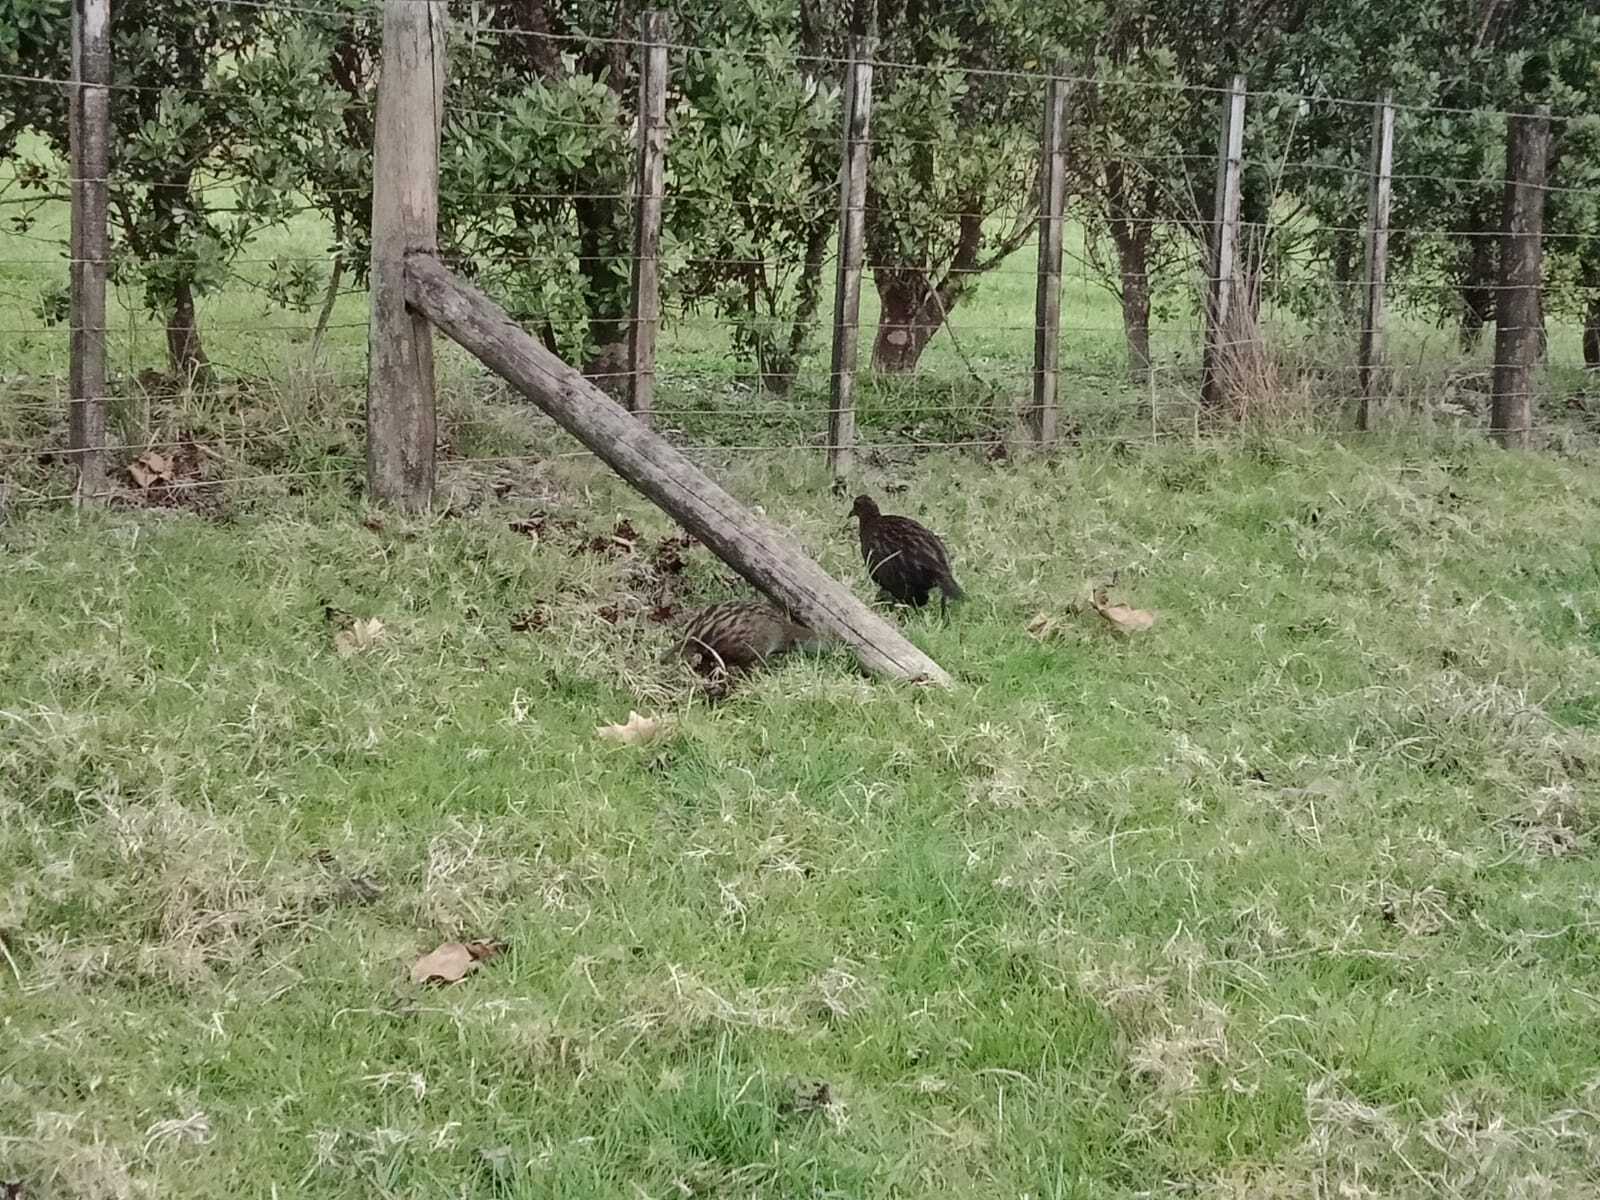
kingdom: Animalia
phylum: Chordata
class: Aves
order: Gruiformes
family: Rallidae
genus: Gallirallus
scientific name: Gallirallus australis
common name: Weka
